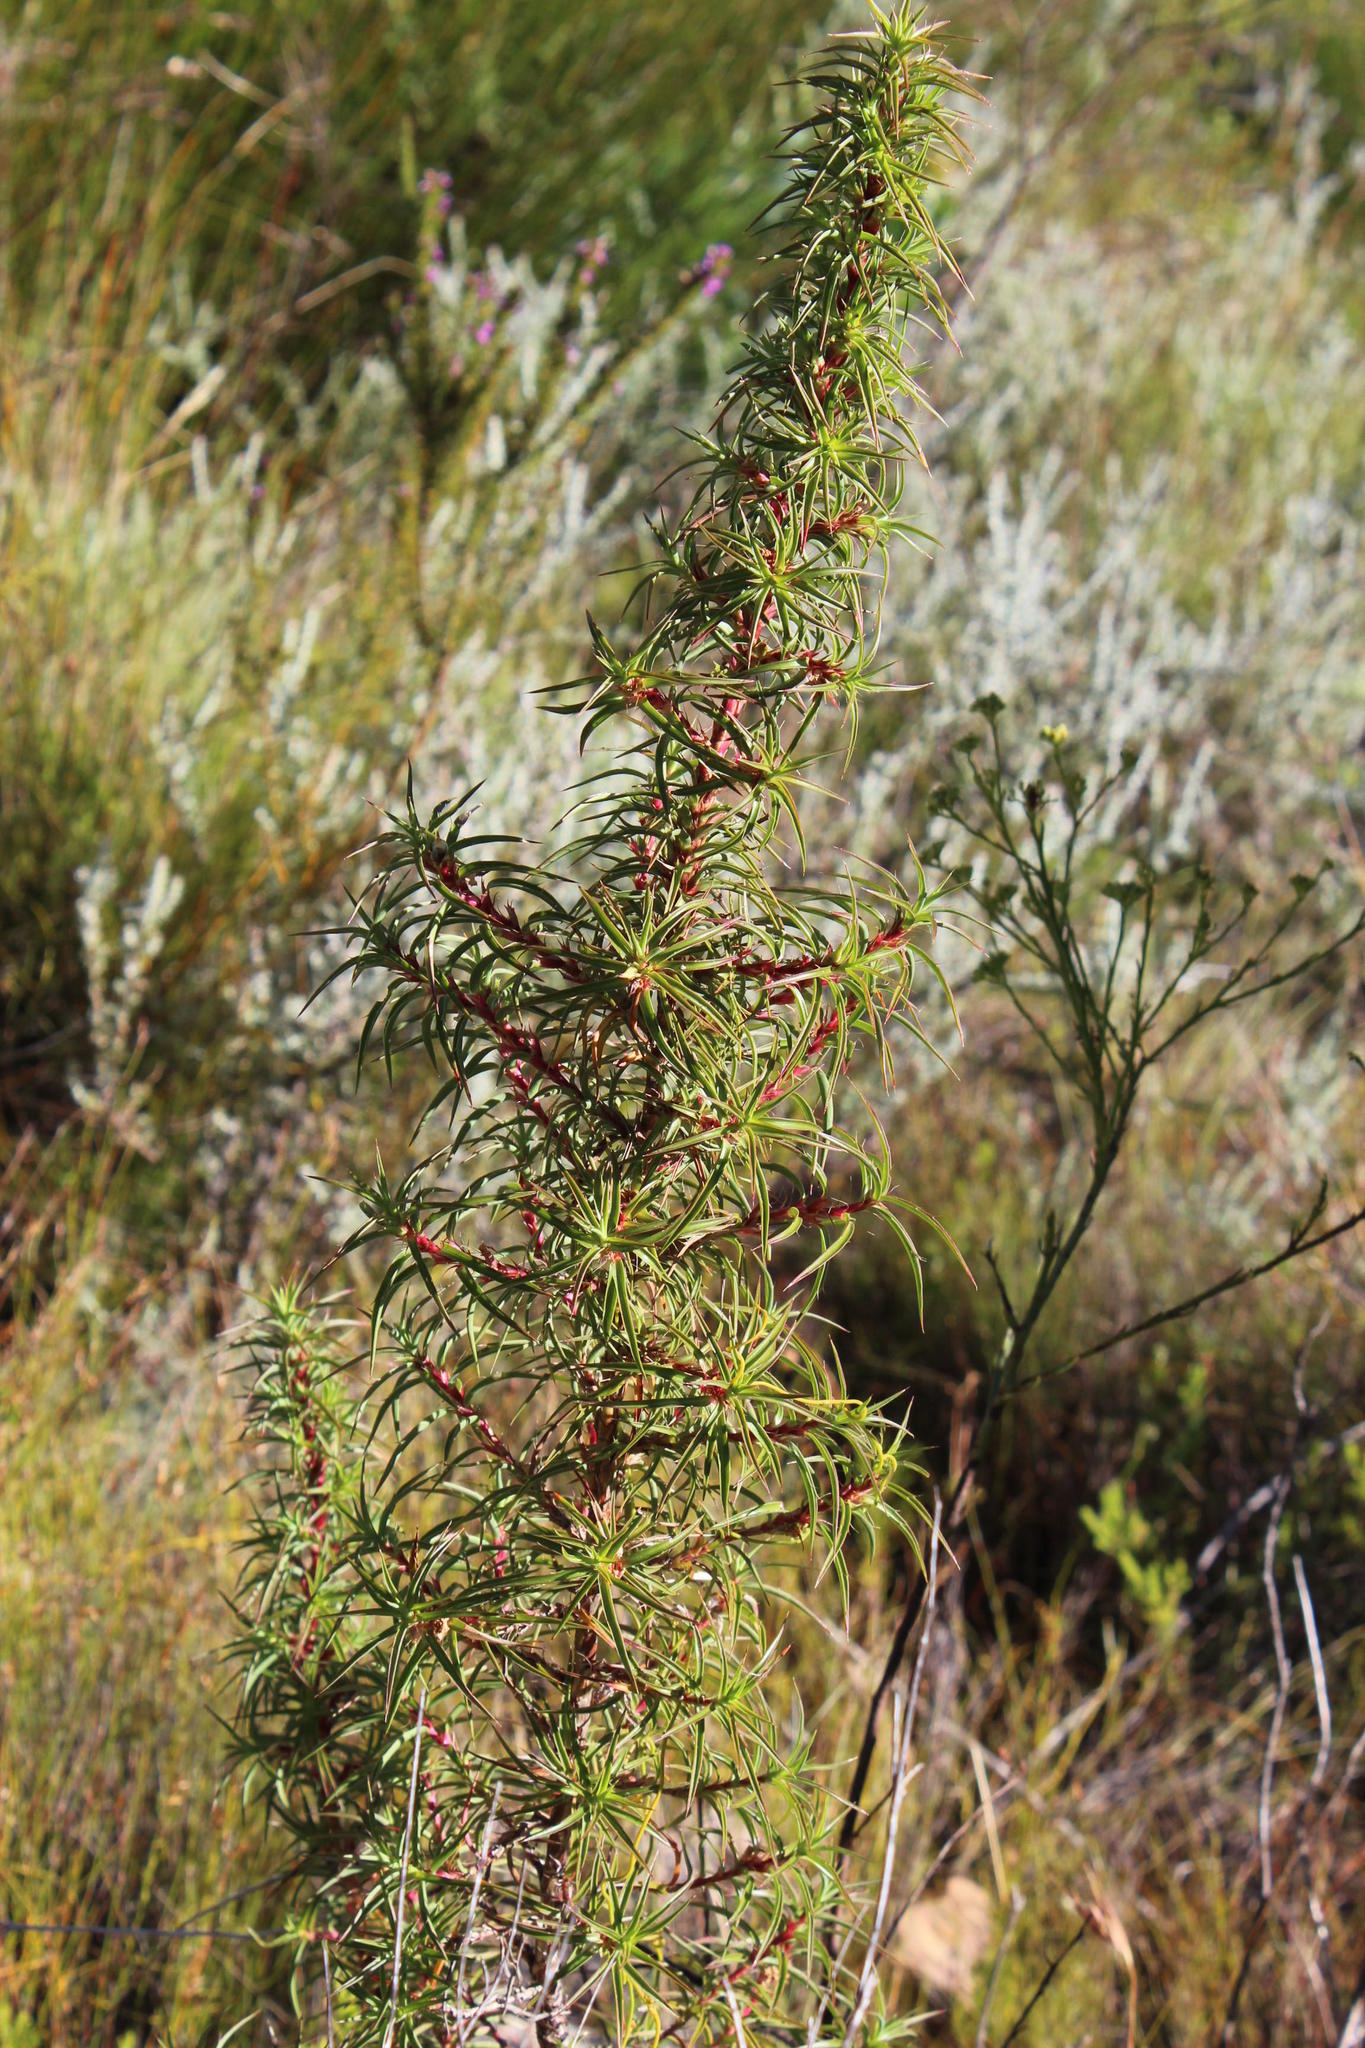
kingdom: Plantae
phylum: Tracheophyta
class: Magnoliopsida
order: Rosales
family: Rosaceae
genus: Cliffortia
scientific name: Cliffortia dregeana
